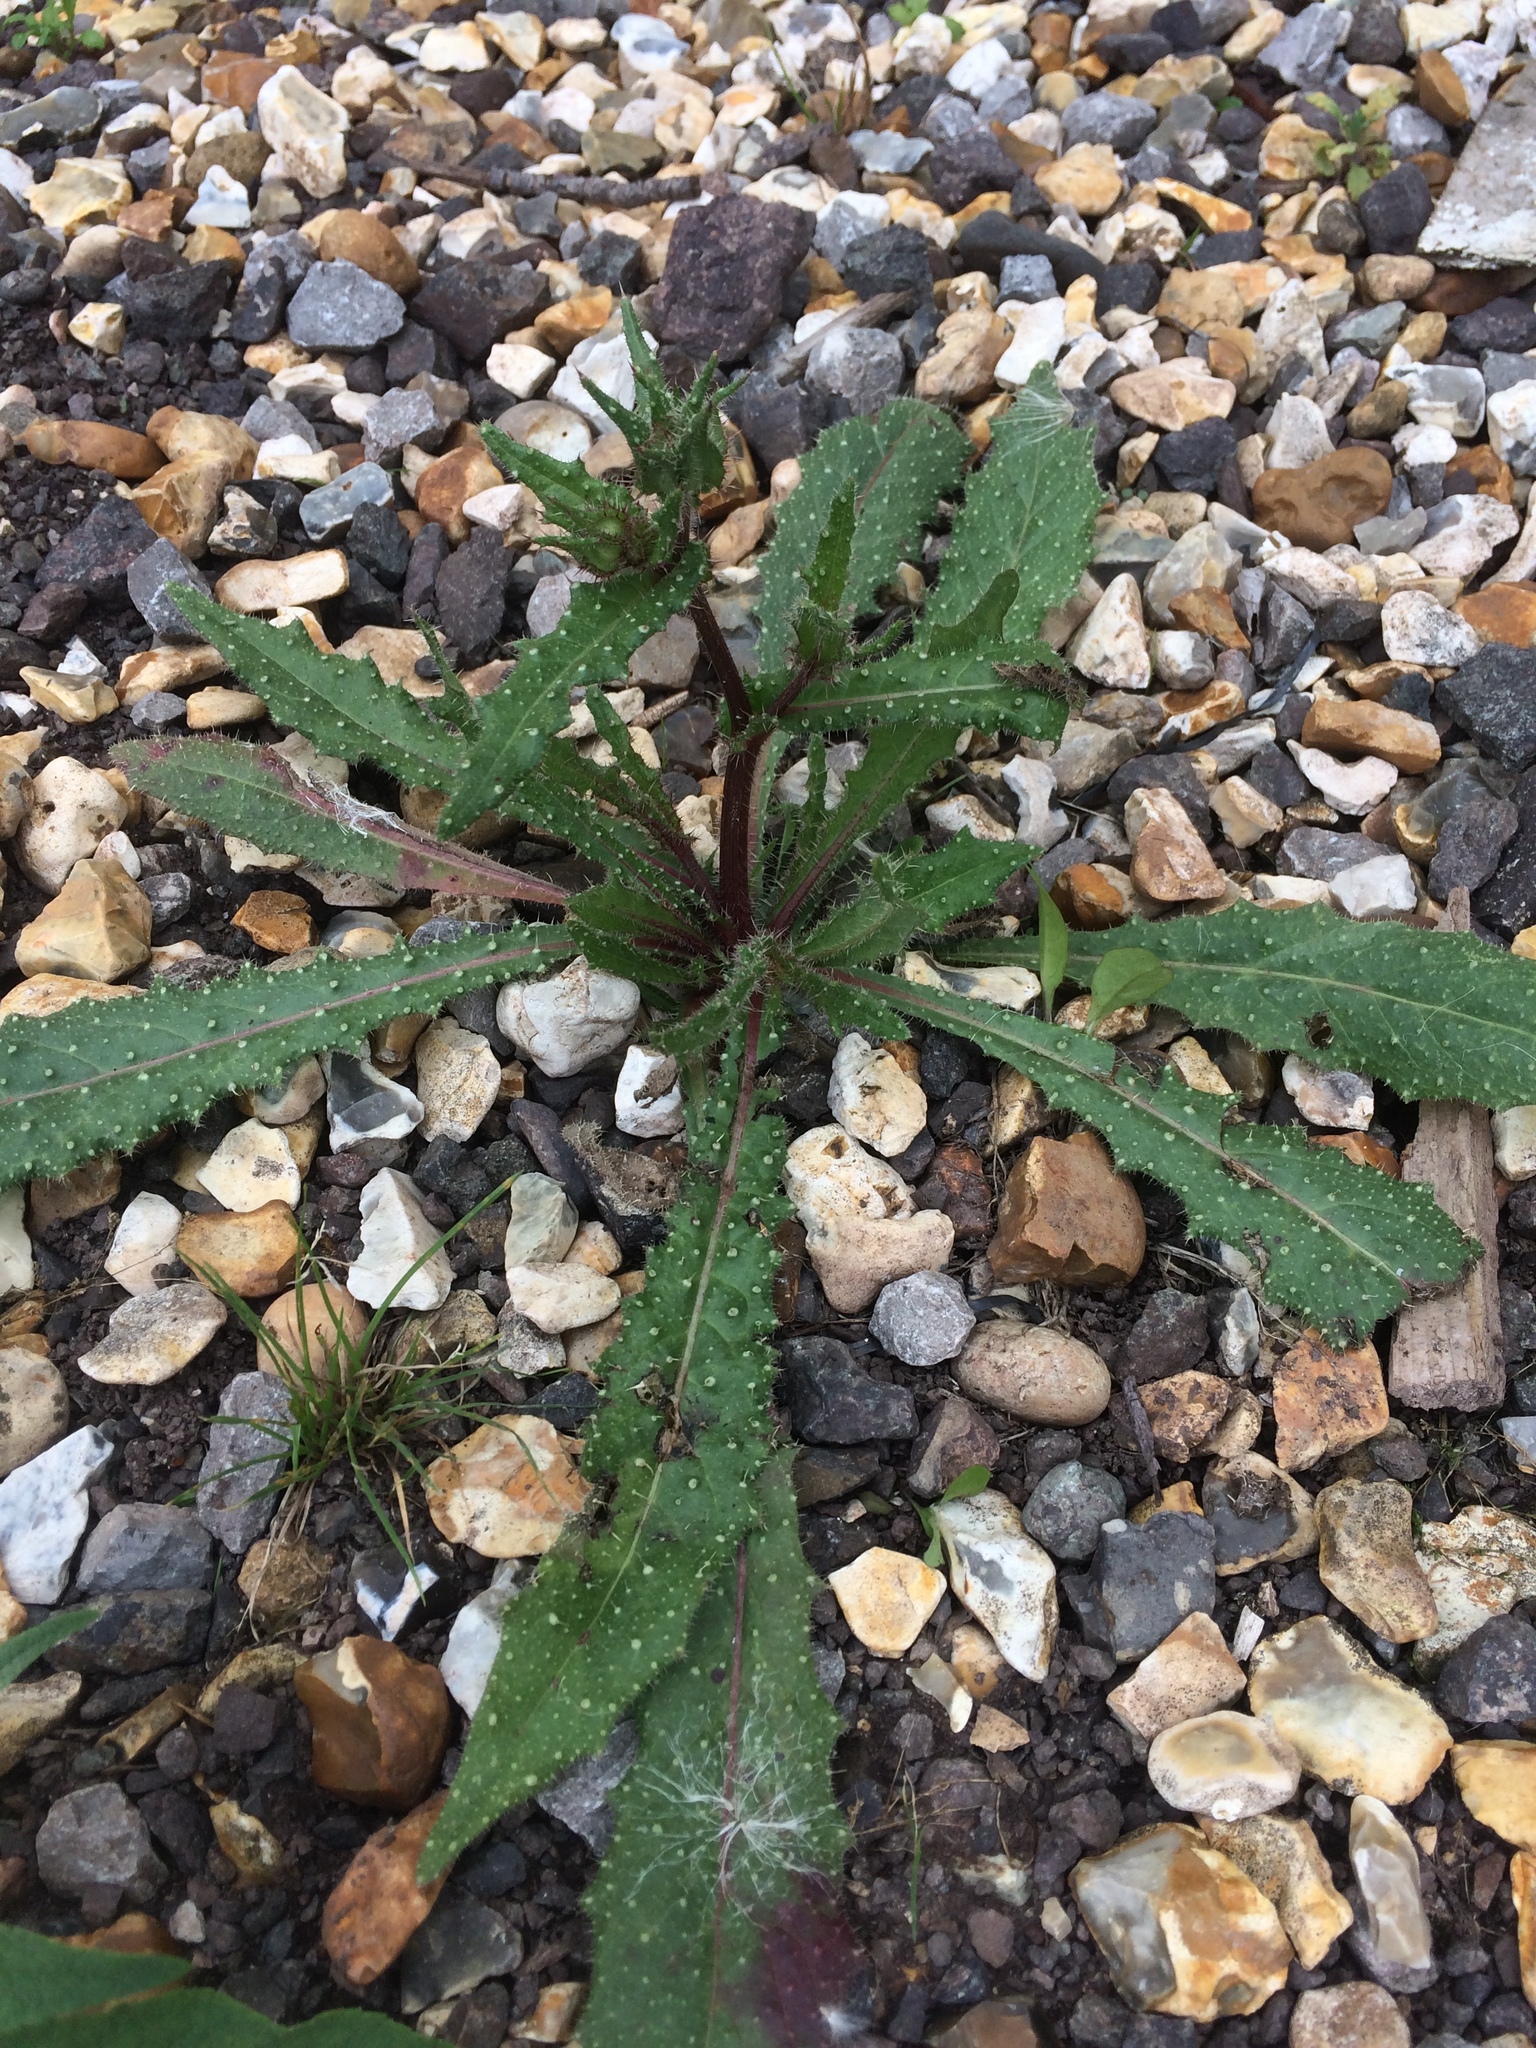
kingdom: Plantae
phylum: Tracheophyta
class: Magnoliopsida
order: Asterales
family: Asteraceae
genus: Helminthotheca
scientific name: Helminthotheca echioides
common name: Ox-tongue
